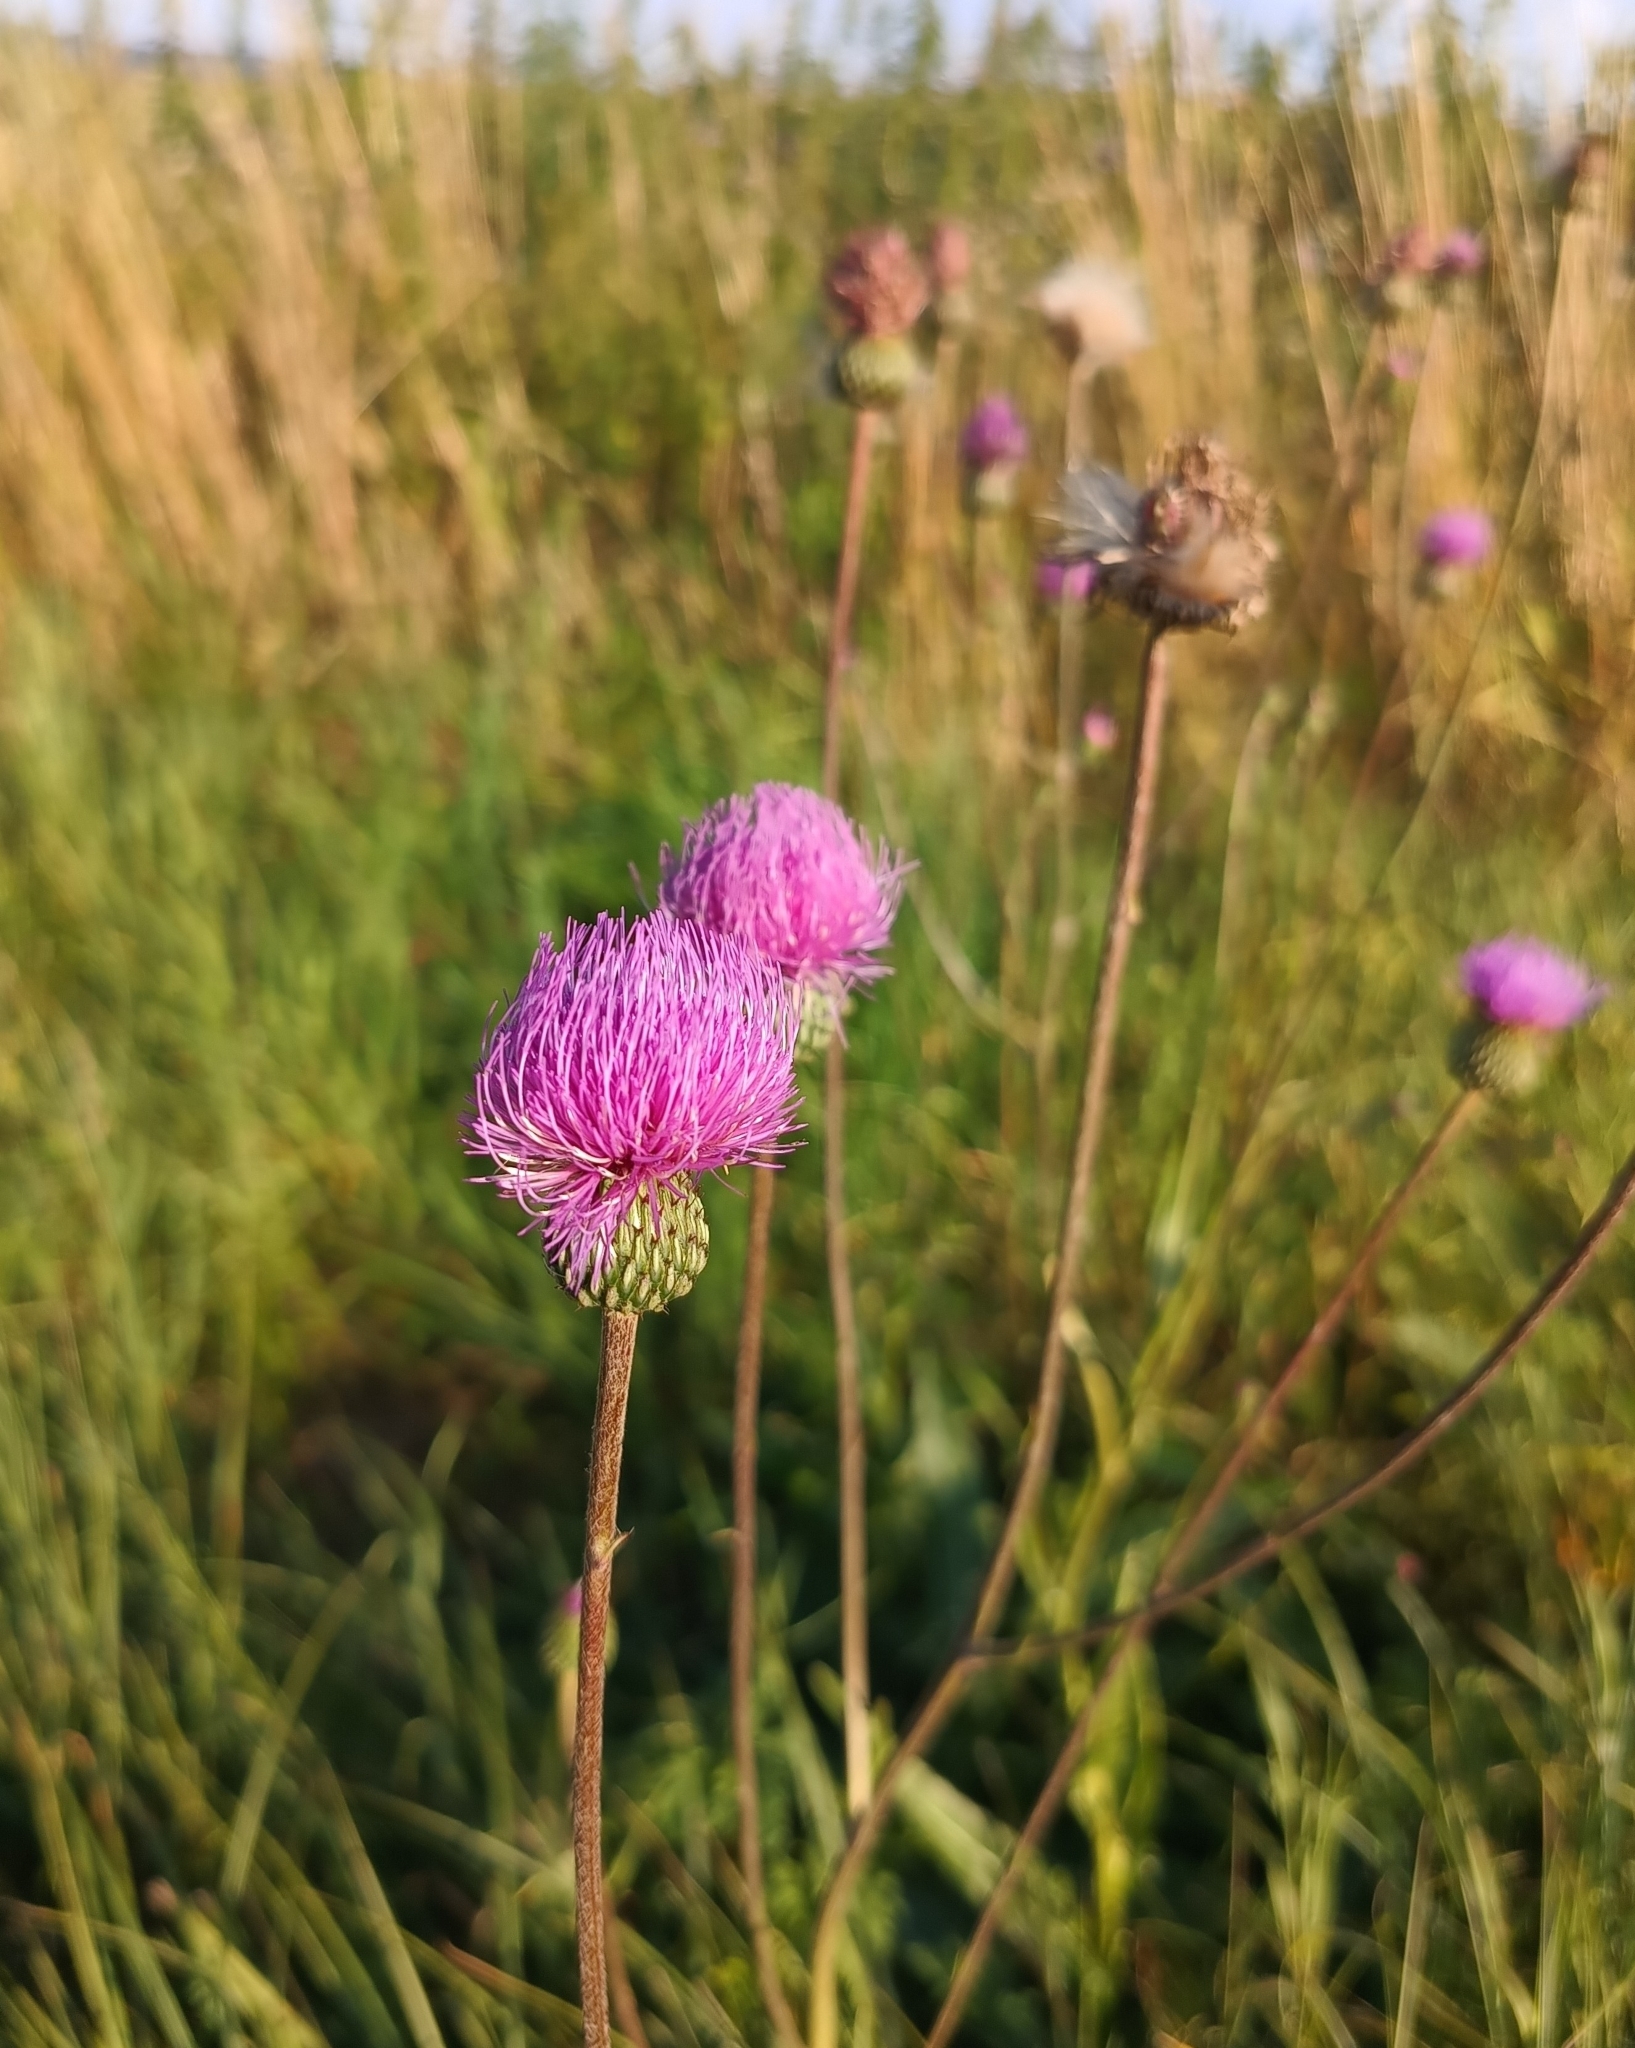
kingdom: Plantae
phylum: Tracheophyta
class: Magnoliopsida
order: Asterales
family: Asteraceae
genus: Cirsium
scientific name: Cirsium canum
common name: Queen anne's thistle
